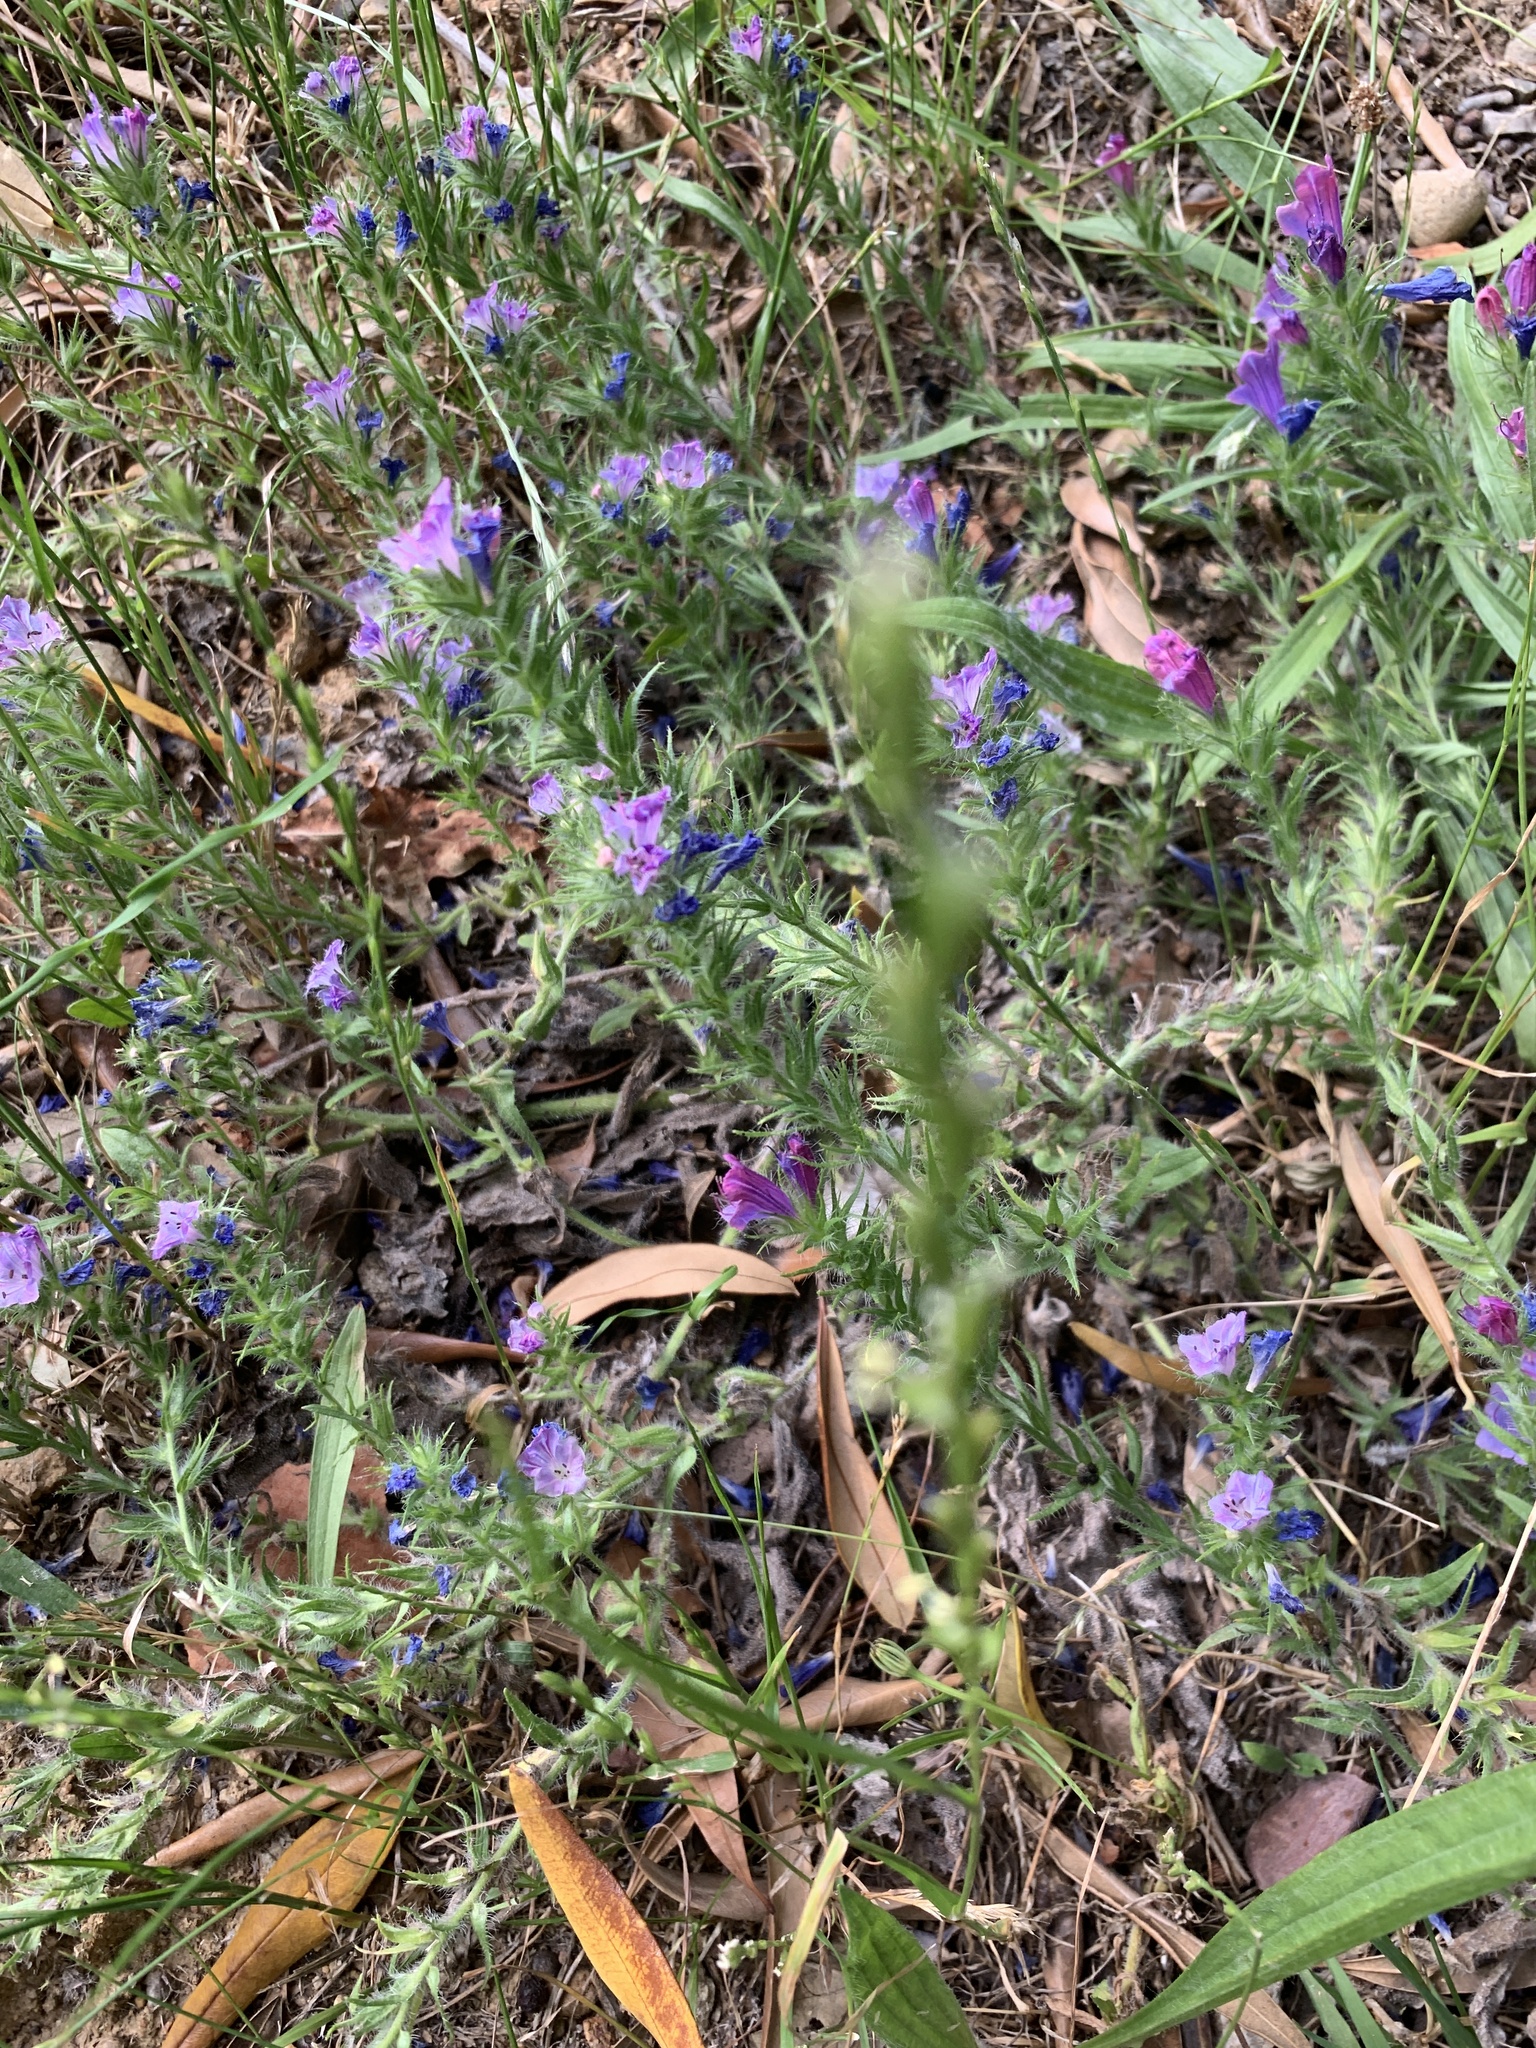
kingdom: Plantae
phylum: Tracheophyta
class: Magnoliopsida
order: Boraginales
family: Boraginaceae
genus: Echium
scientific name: Echium plantagineum
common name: Purple viper's-bugloss
